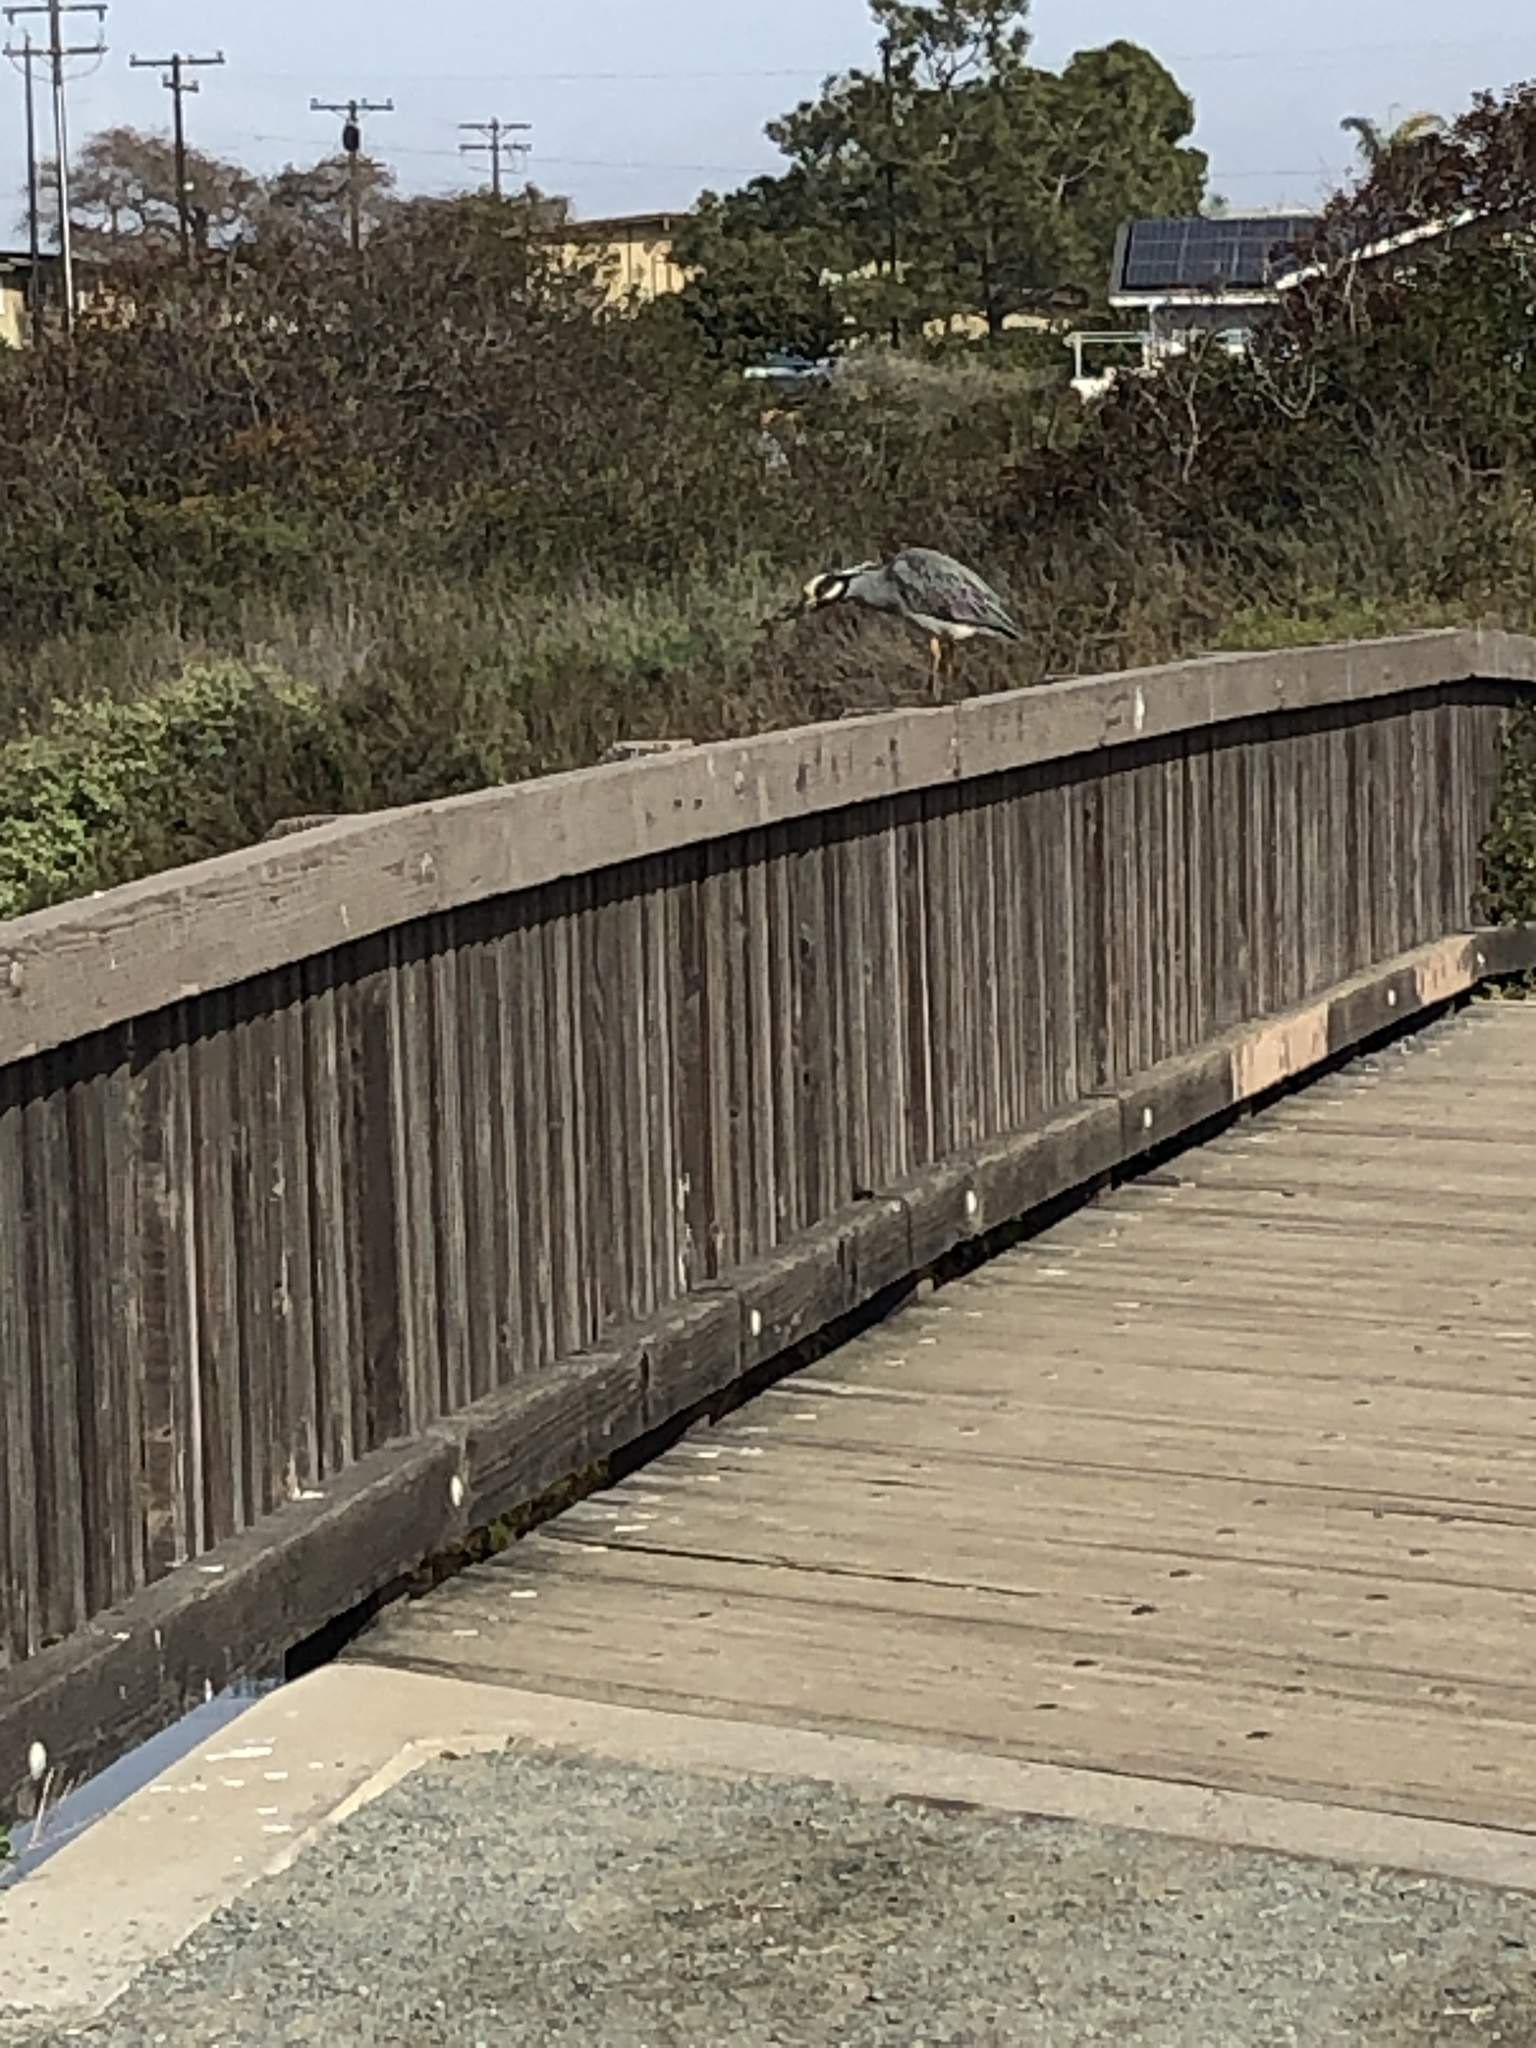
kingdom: Animalia
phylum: Chordata
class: Aves
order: Pelecaniformes
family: Ardeidae
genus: Nyctanassa
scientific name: Nyctanassa violacea
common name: Yellow-crowned night heron
